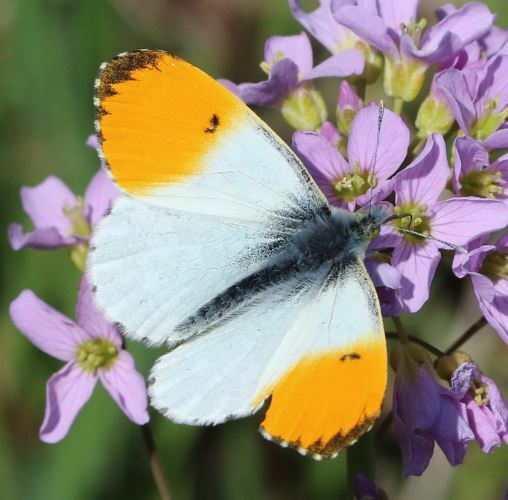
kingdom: Animalia
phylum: Arthropoda
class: Insecta
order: Lepidoptera
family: Pieridae
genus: Anthocharis
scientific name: Anthocharis cardamines
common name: Orange-tip
